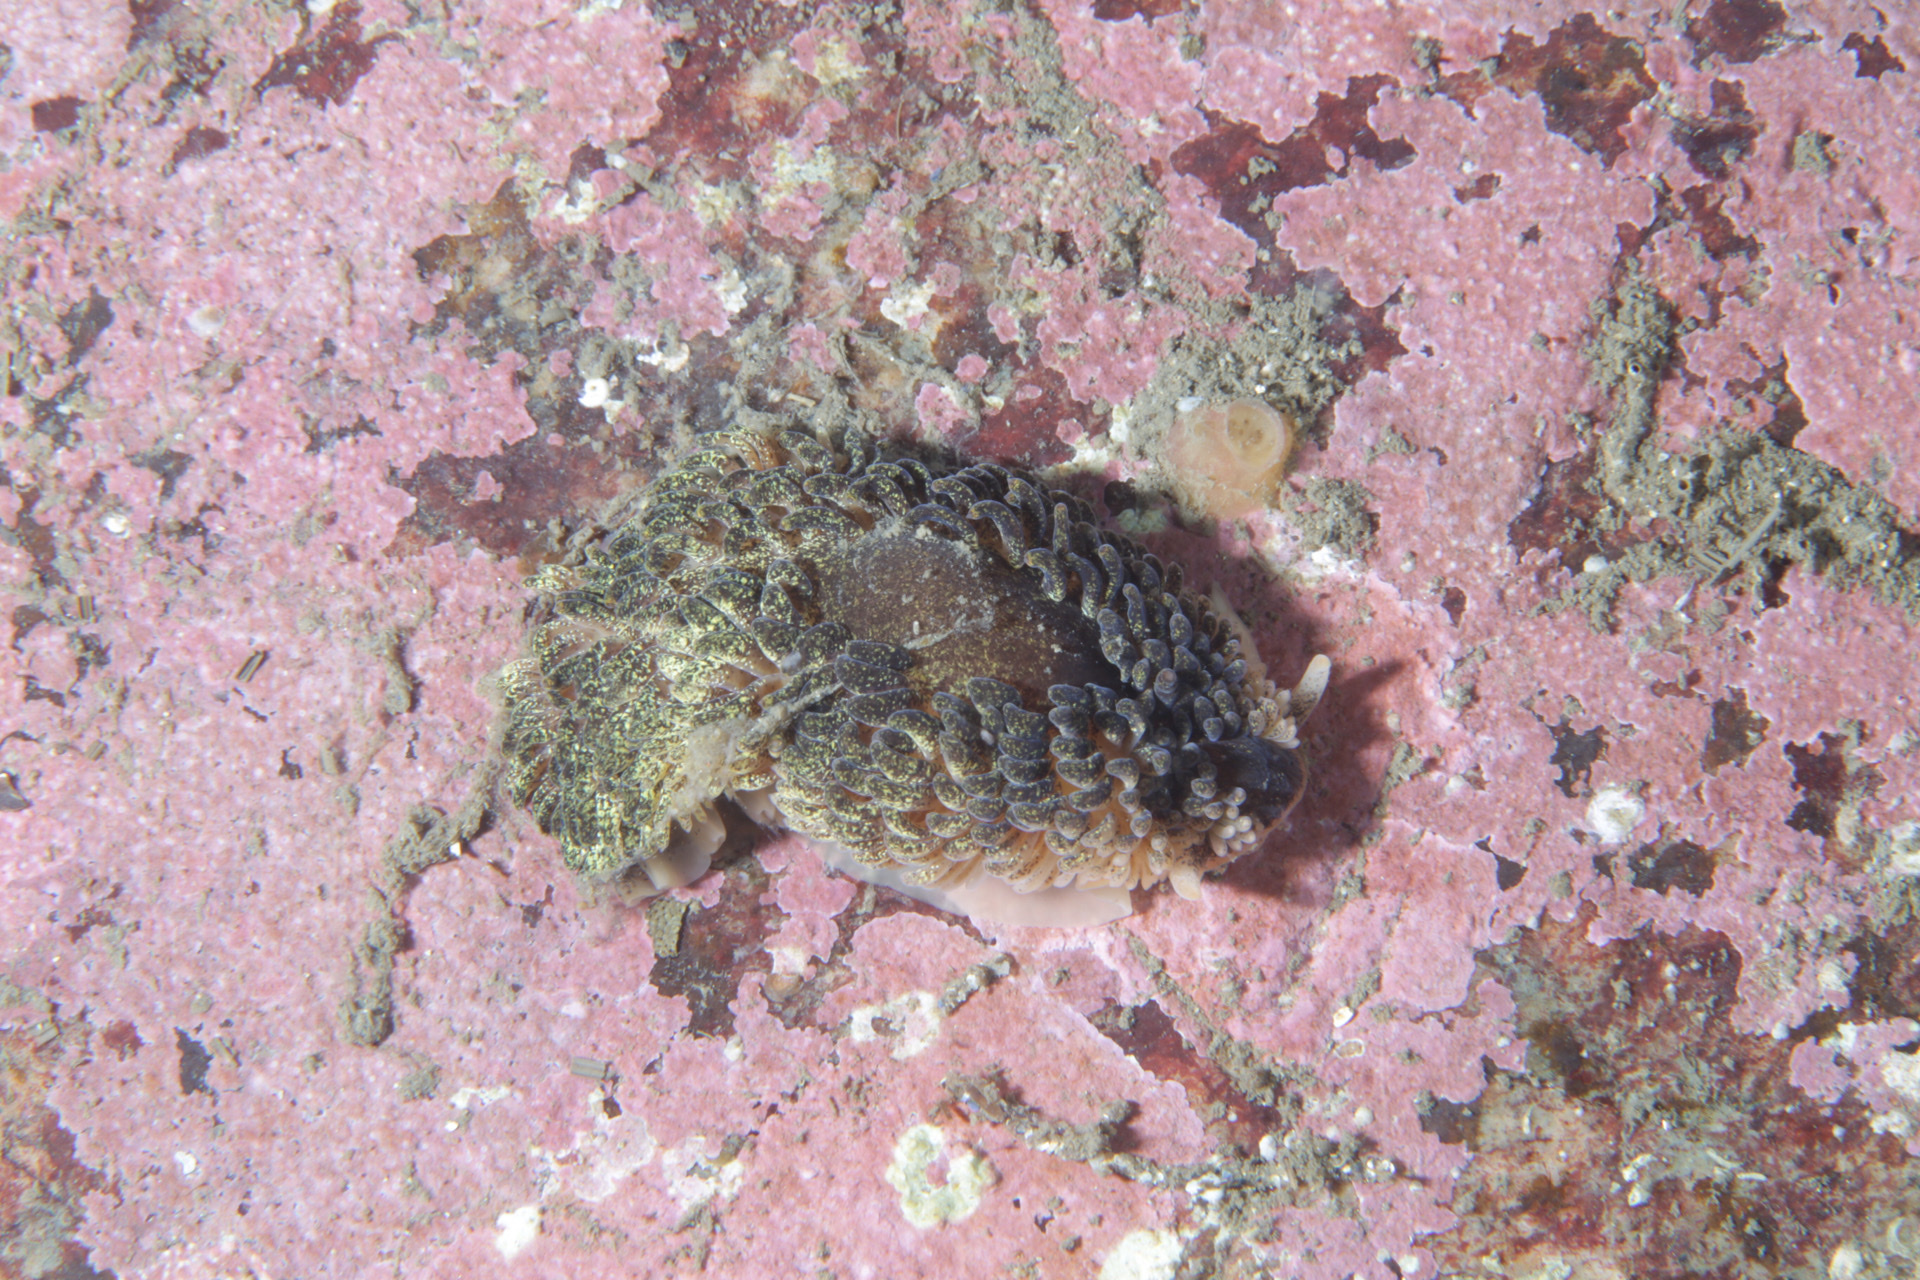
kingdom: Animalia
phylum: Mollusca
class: Gastropoda
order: Nudibranchia
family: Aeolidiidae
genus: Aeolidia
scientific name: Aeolidia papillosa
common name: Common grey sea slug
